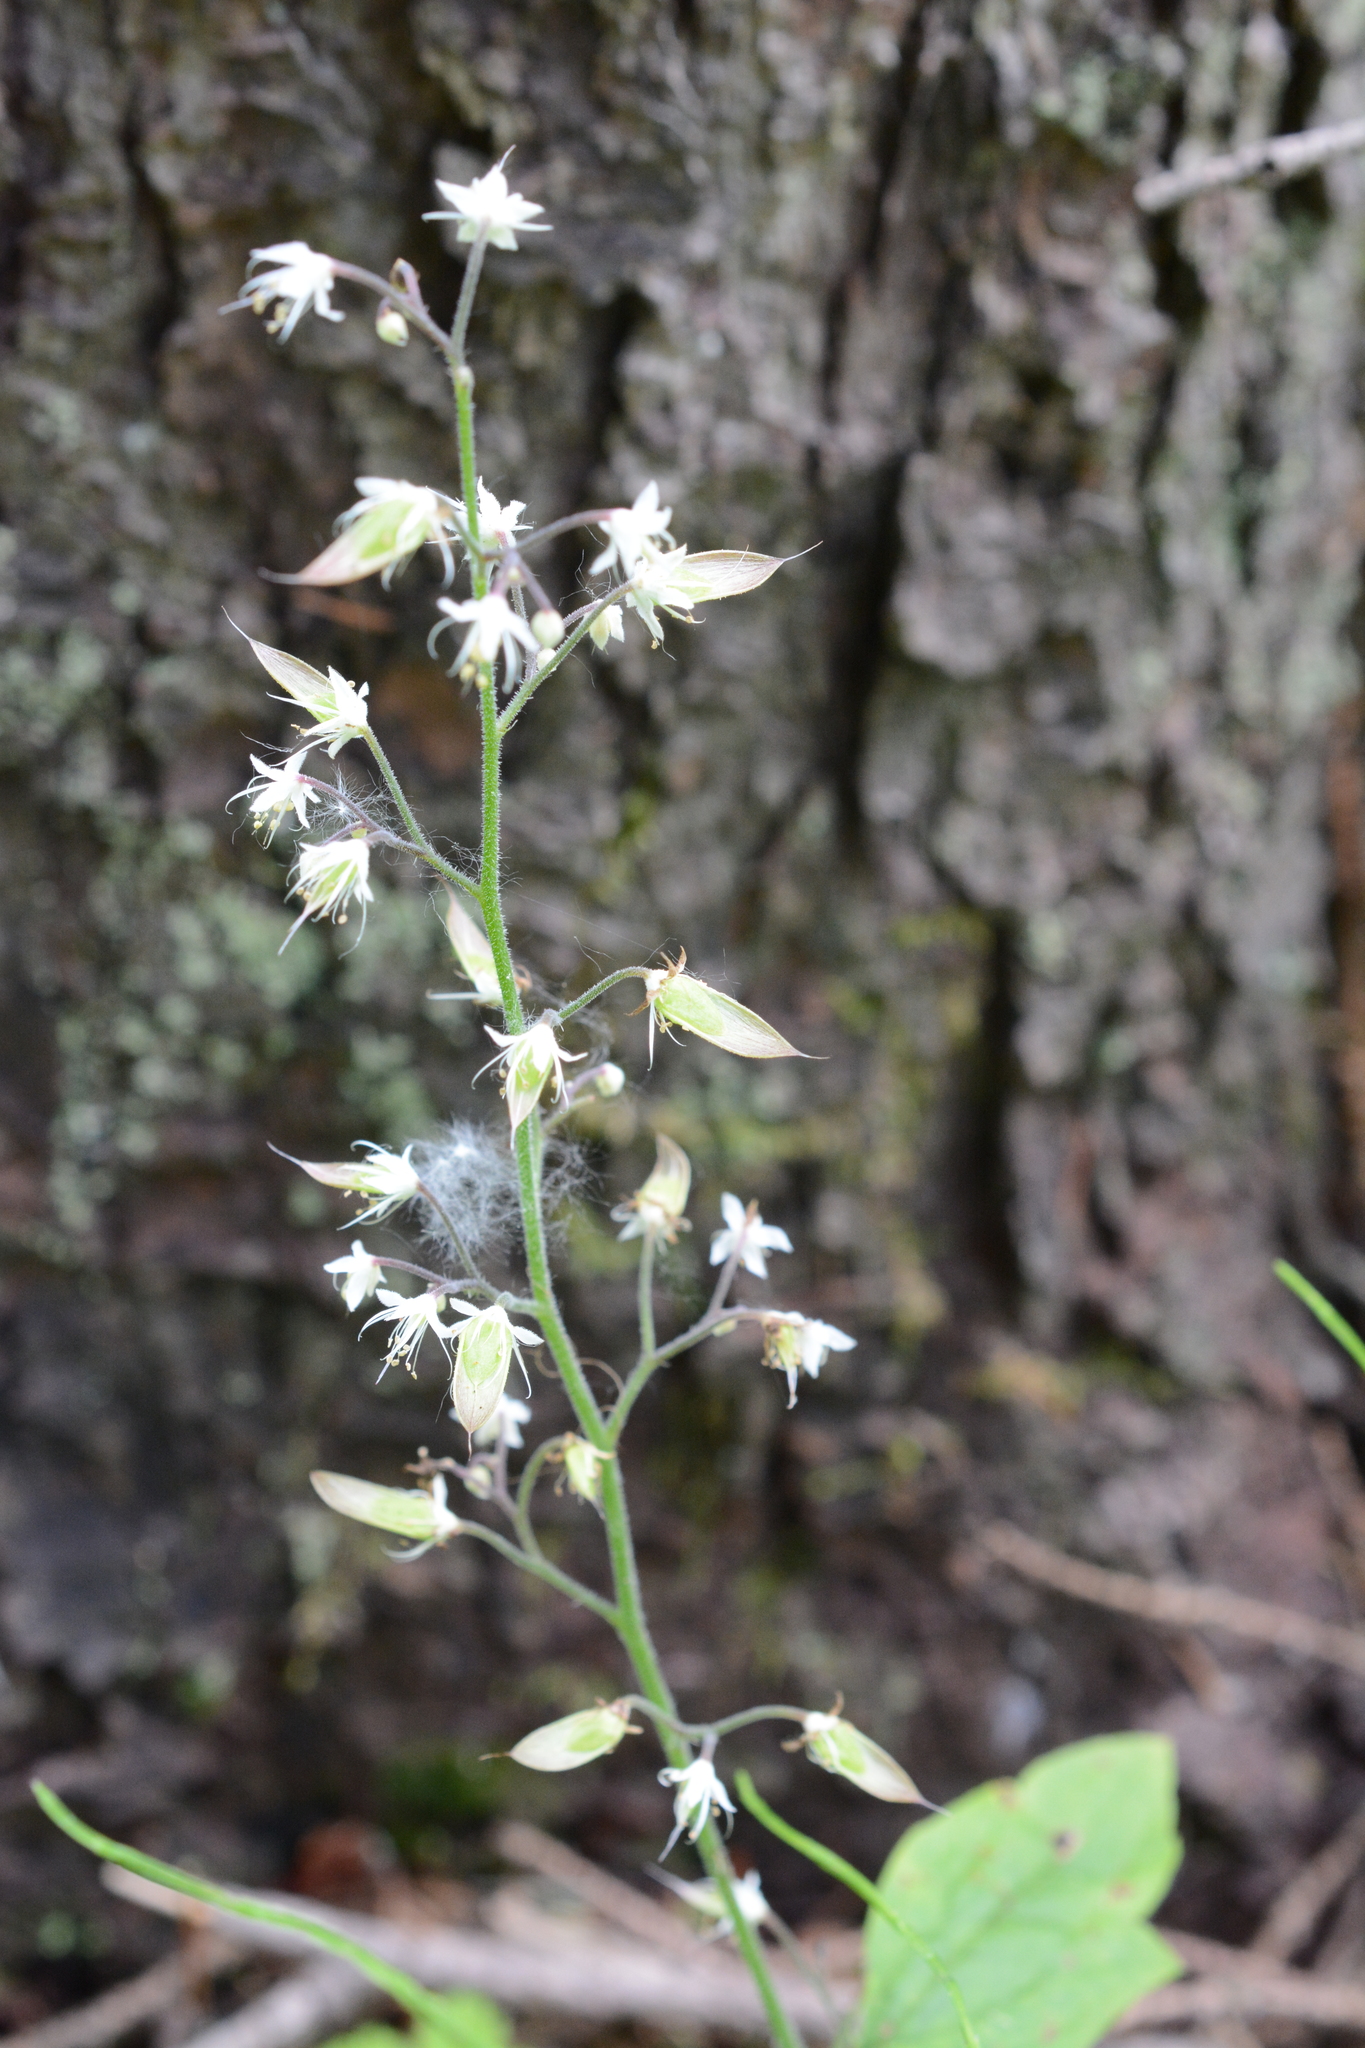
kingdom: Plantae
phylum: Tracheophyta
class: Magnoliopsida
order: Saxifragales
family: Saxifragaceae
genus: Tiarella
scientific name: Tiarella trifoliata
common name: Sugar-scoop
